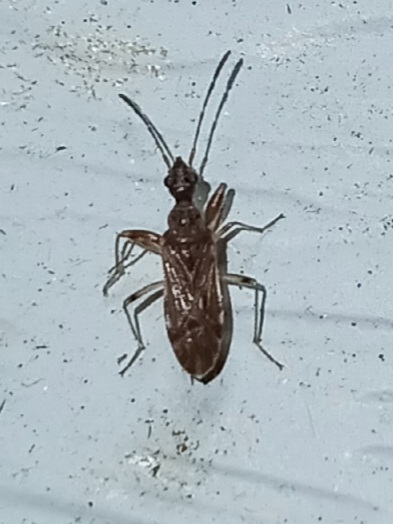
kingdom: Animalia
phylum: Arthropoda
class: Insecta
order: Hemiptera
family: Rhyparochromidae
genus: Heraeus
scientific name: Heraeus plebejus
